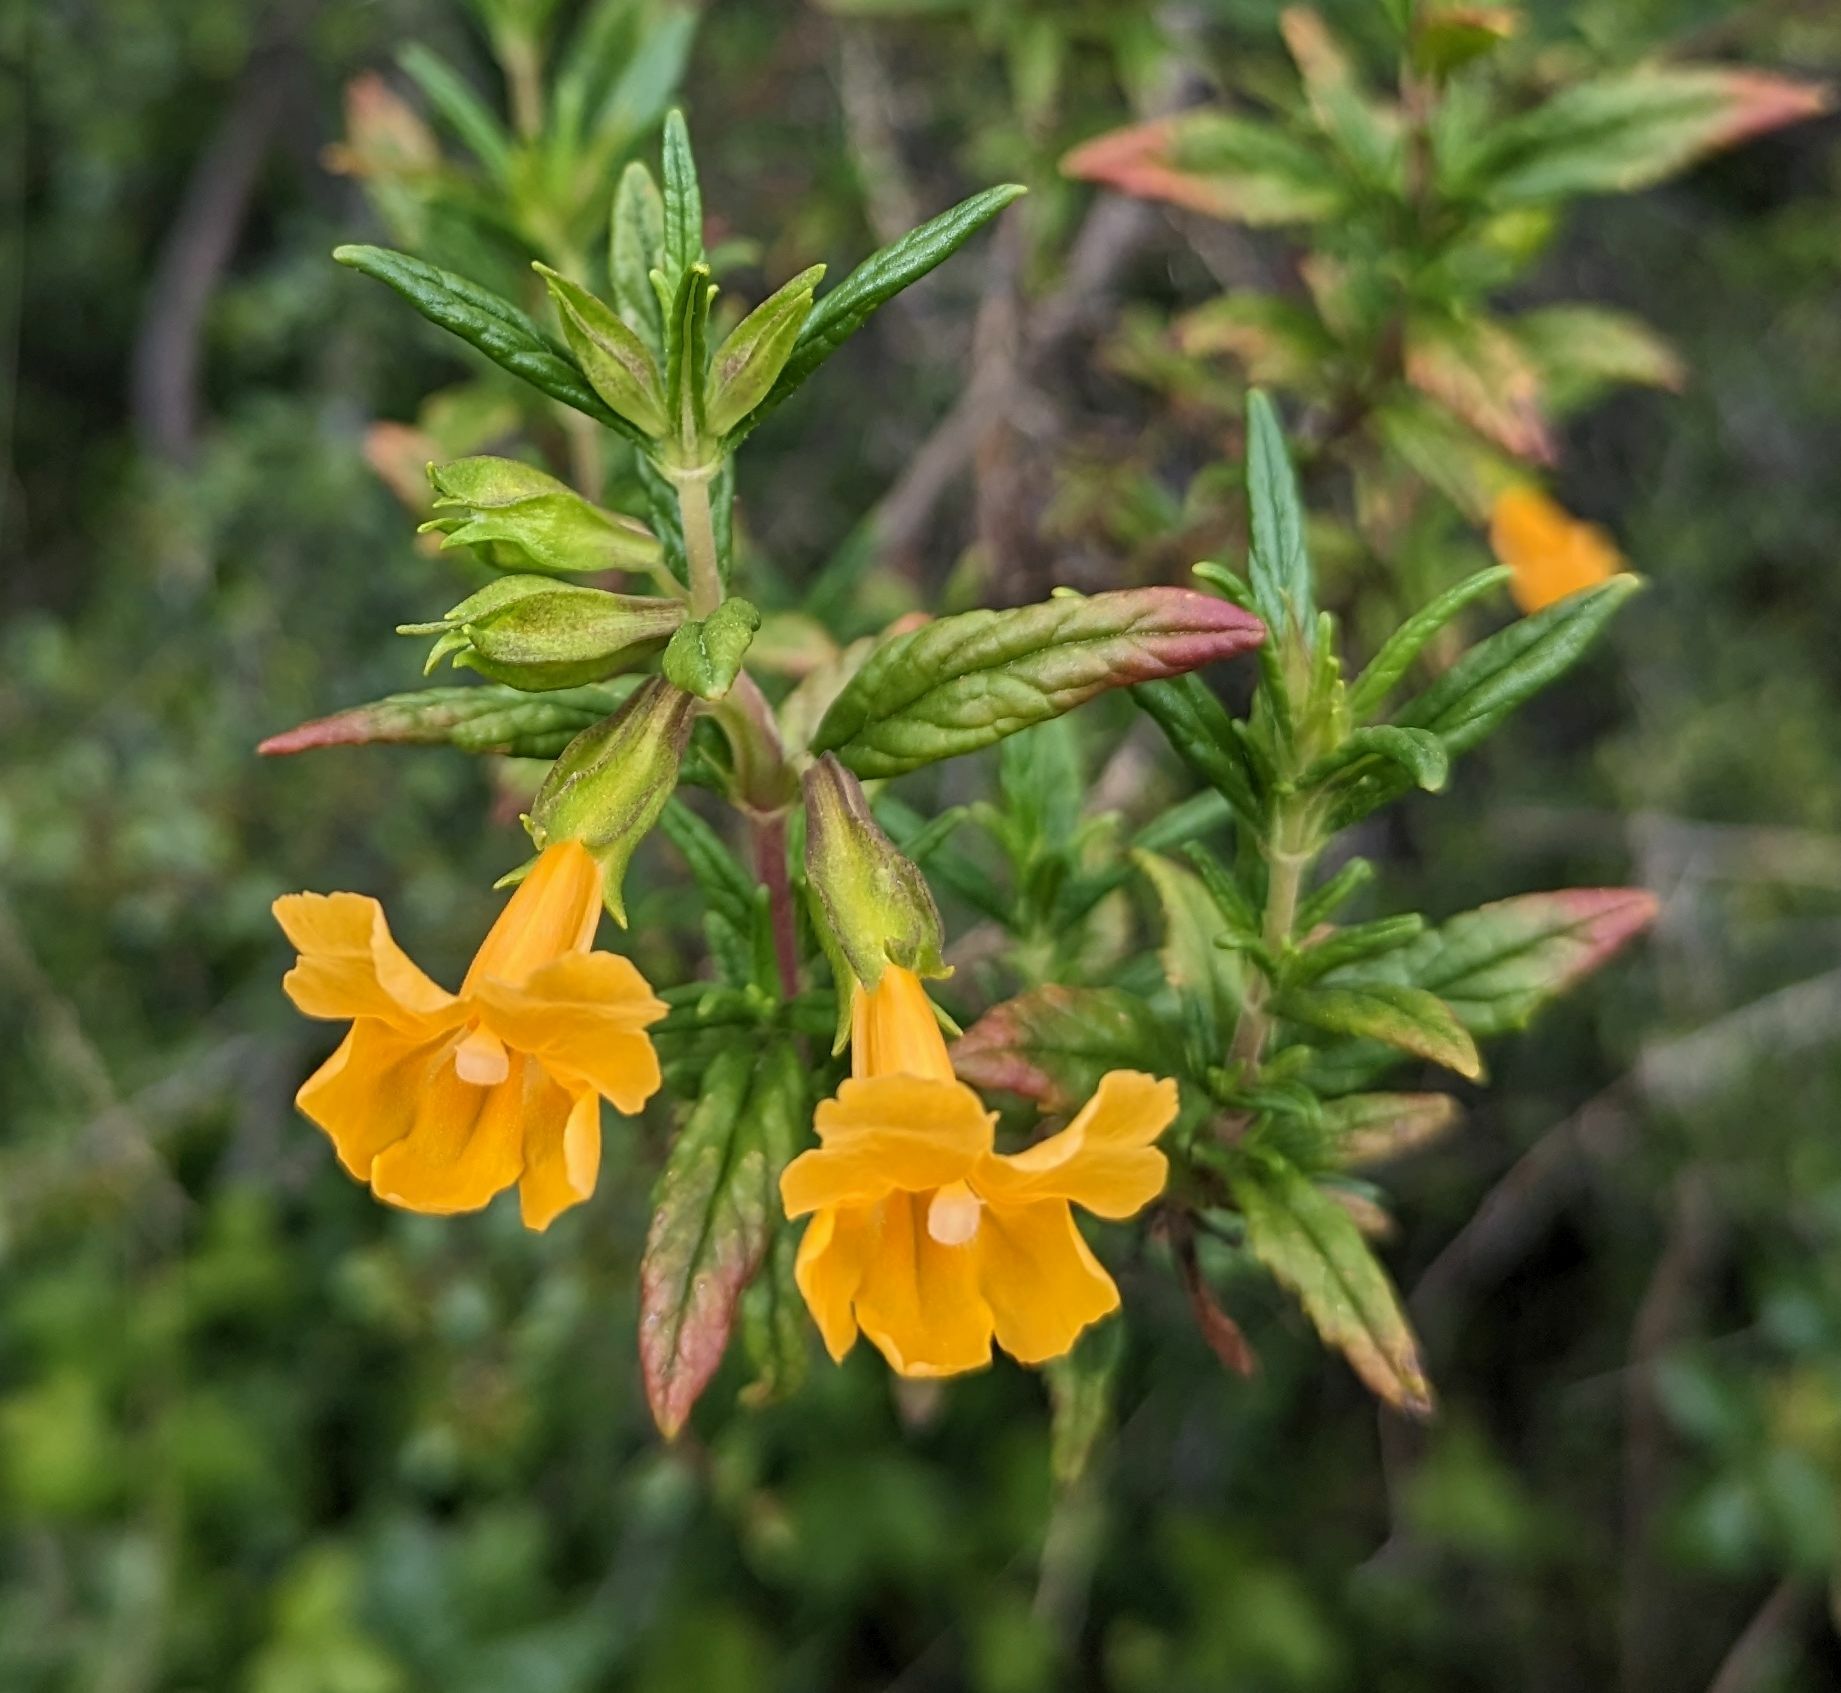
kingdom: Plantae
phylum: Tracheophyta
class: Magnoliopsida
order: Lamiales
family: Phrymaceae
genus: Diplacus
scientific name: Diplacus aurantiacus
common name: Bush monkey-flower
